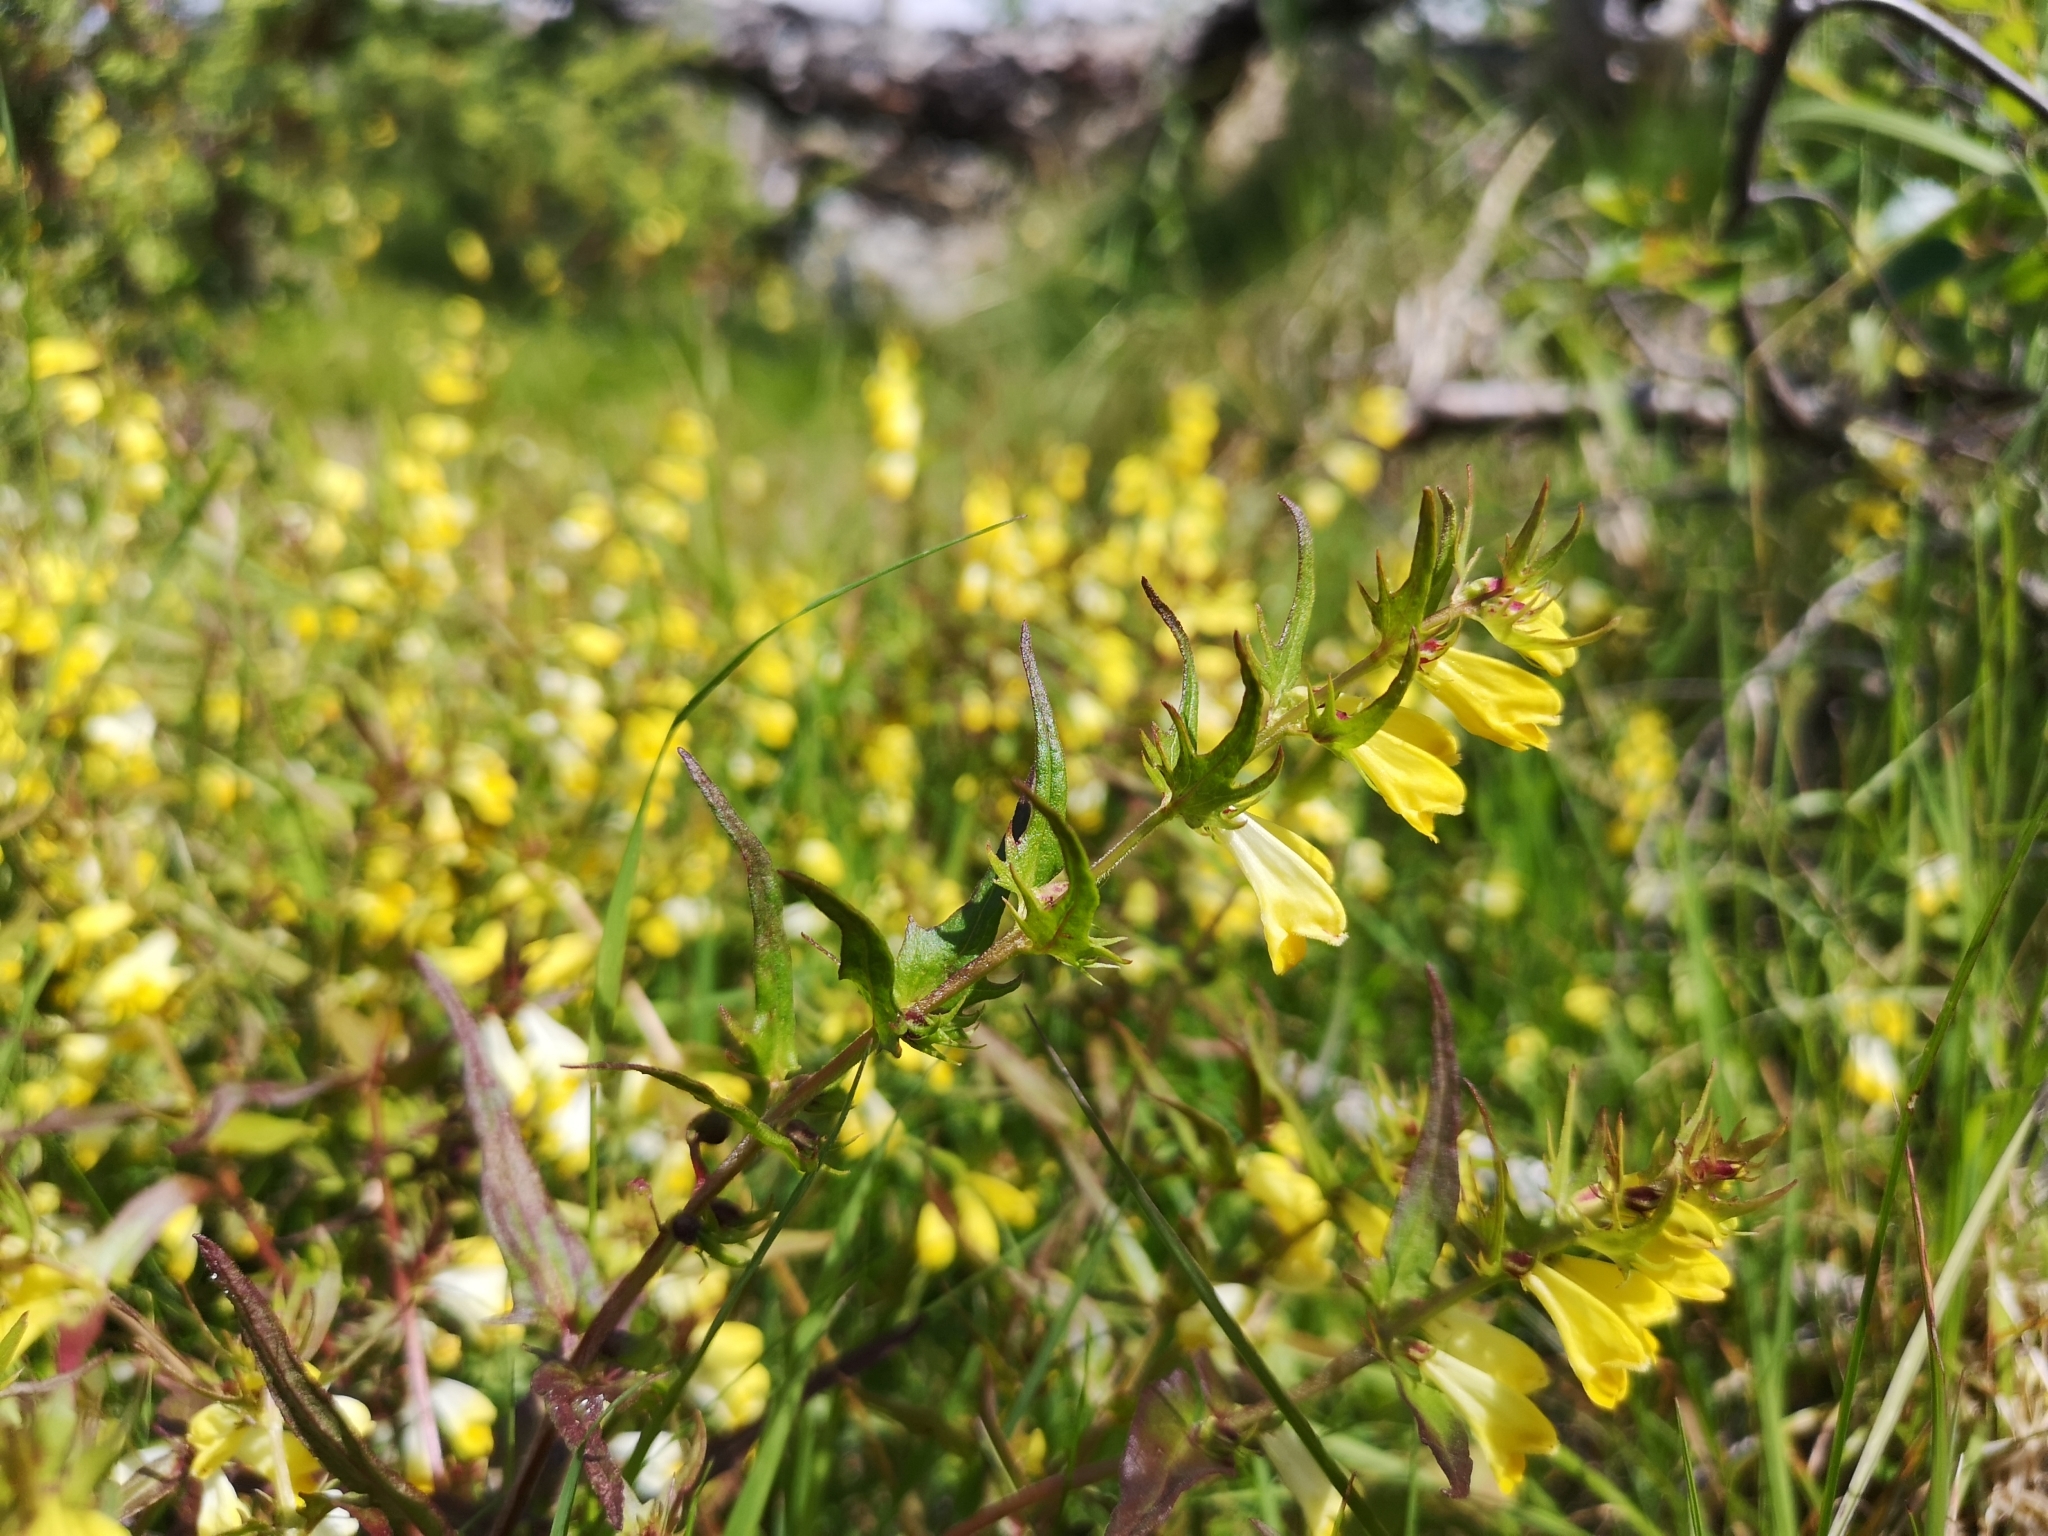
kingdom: Plantae
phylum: Tracheophyta
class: Magnoliopsida
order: Lamiales
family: Orobanchaceae
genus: Melampyrum
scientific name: Melampyrum pratense
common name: Common cow-wheat
